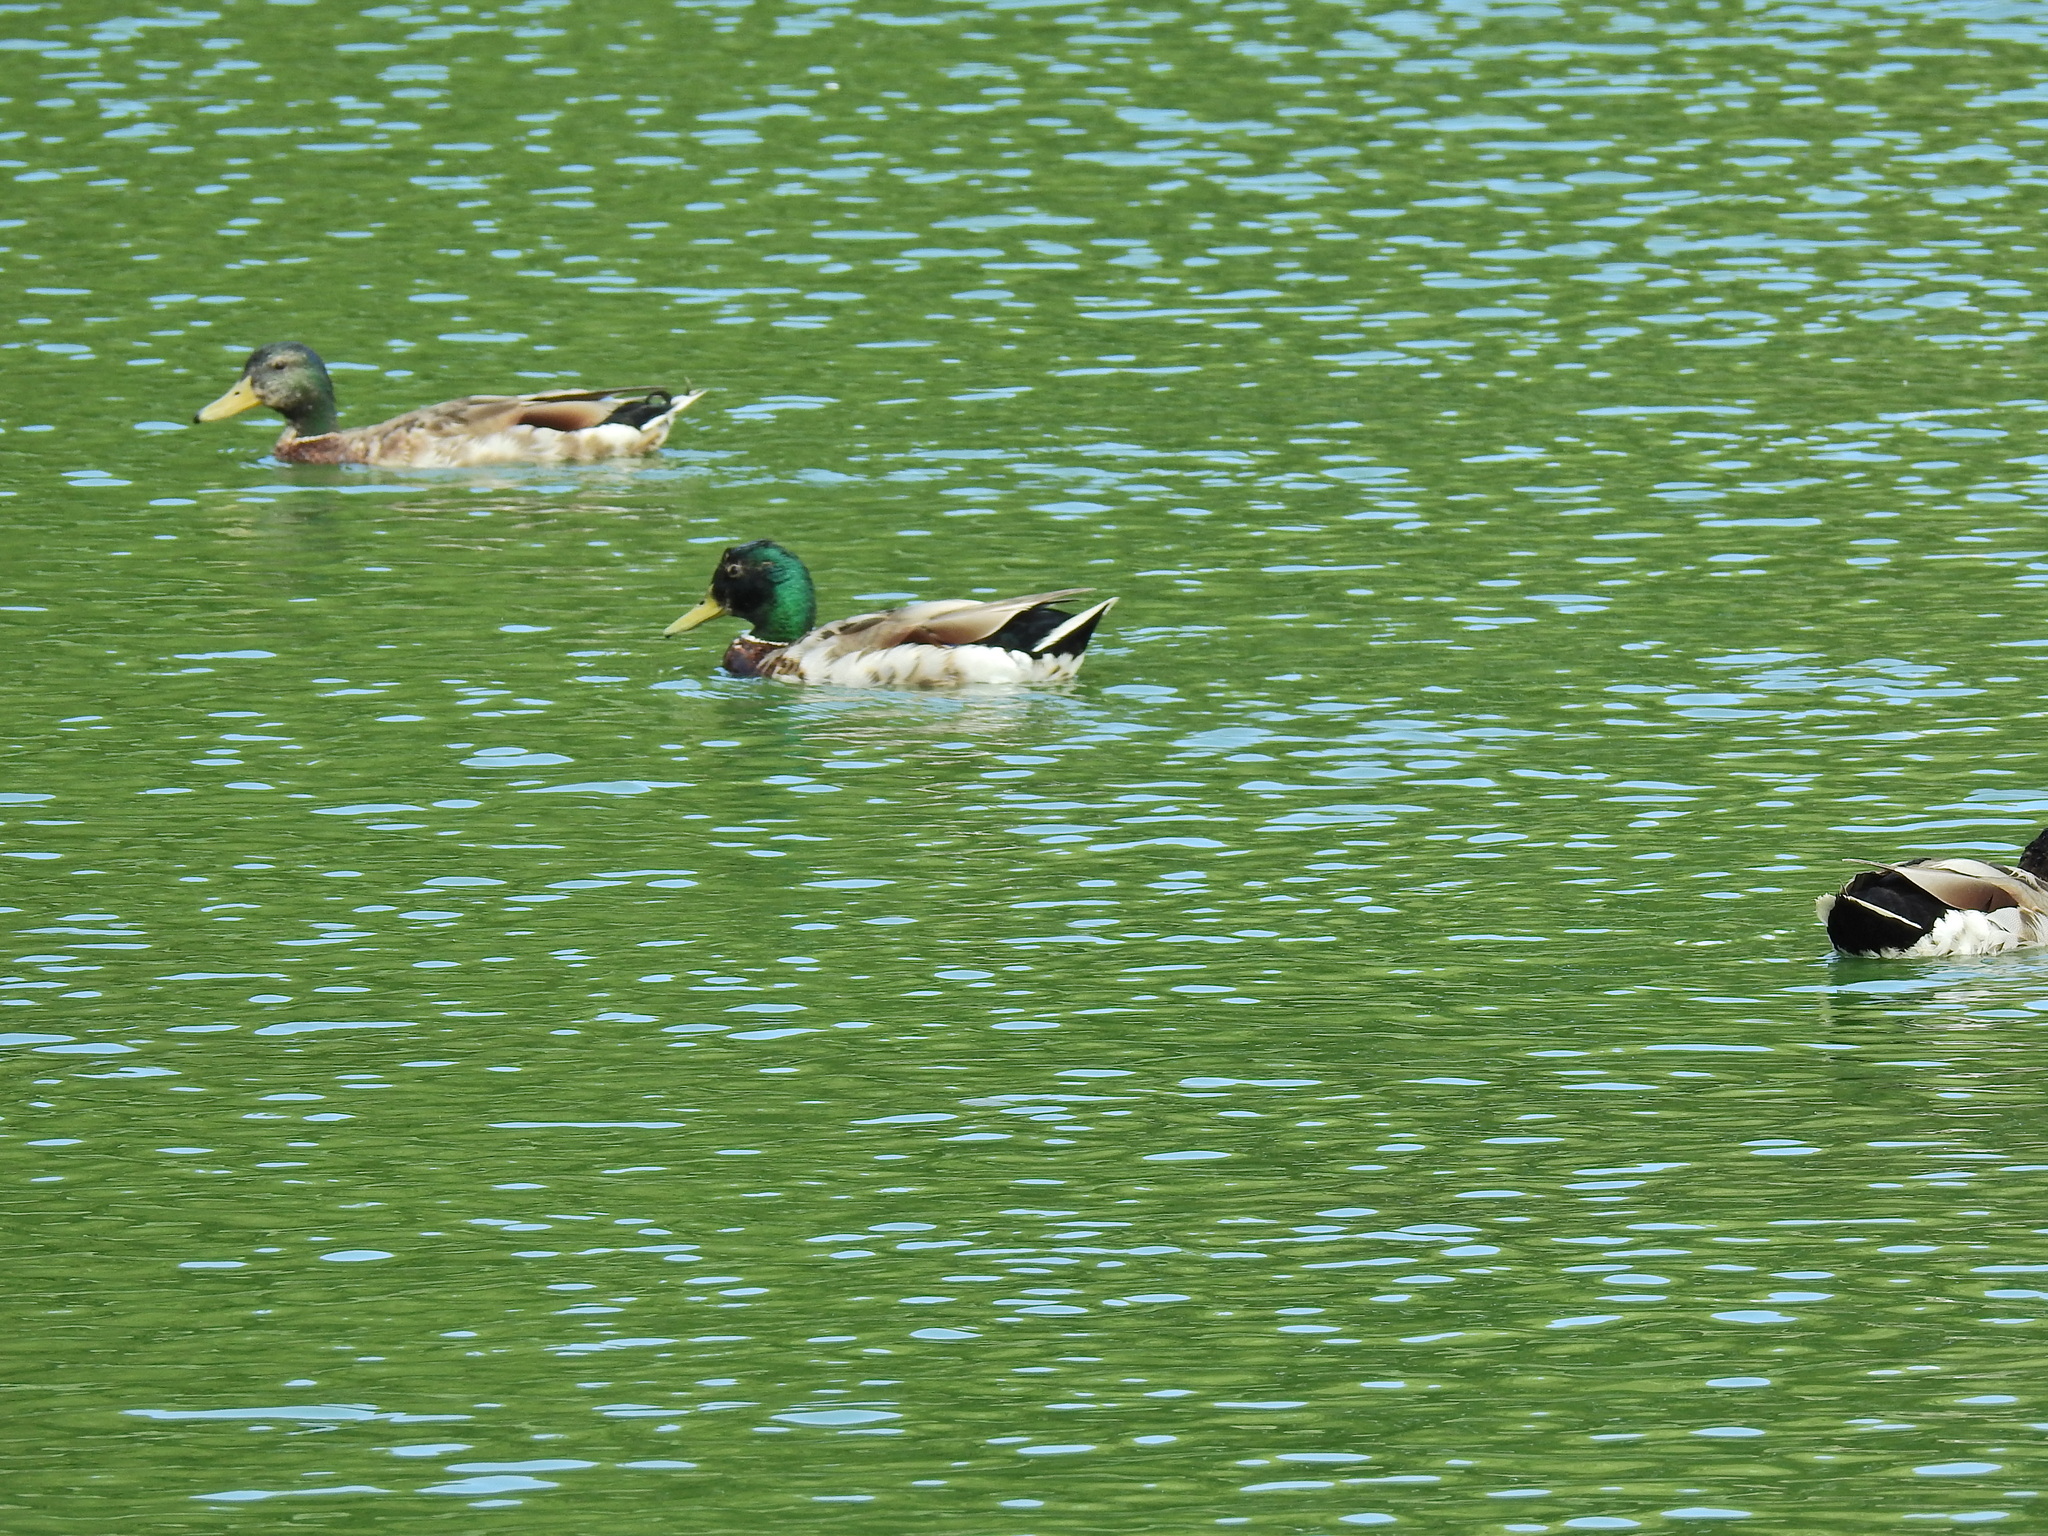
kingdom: Animalia
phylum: Chordata
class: Aves
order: Anseriformes
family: Anatidae
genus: Anas
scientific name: Anas platyrhynchos
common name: Mallard
